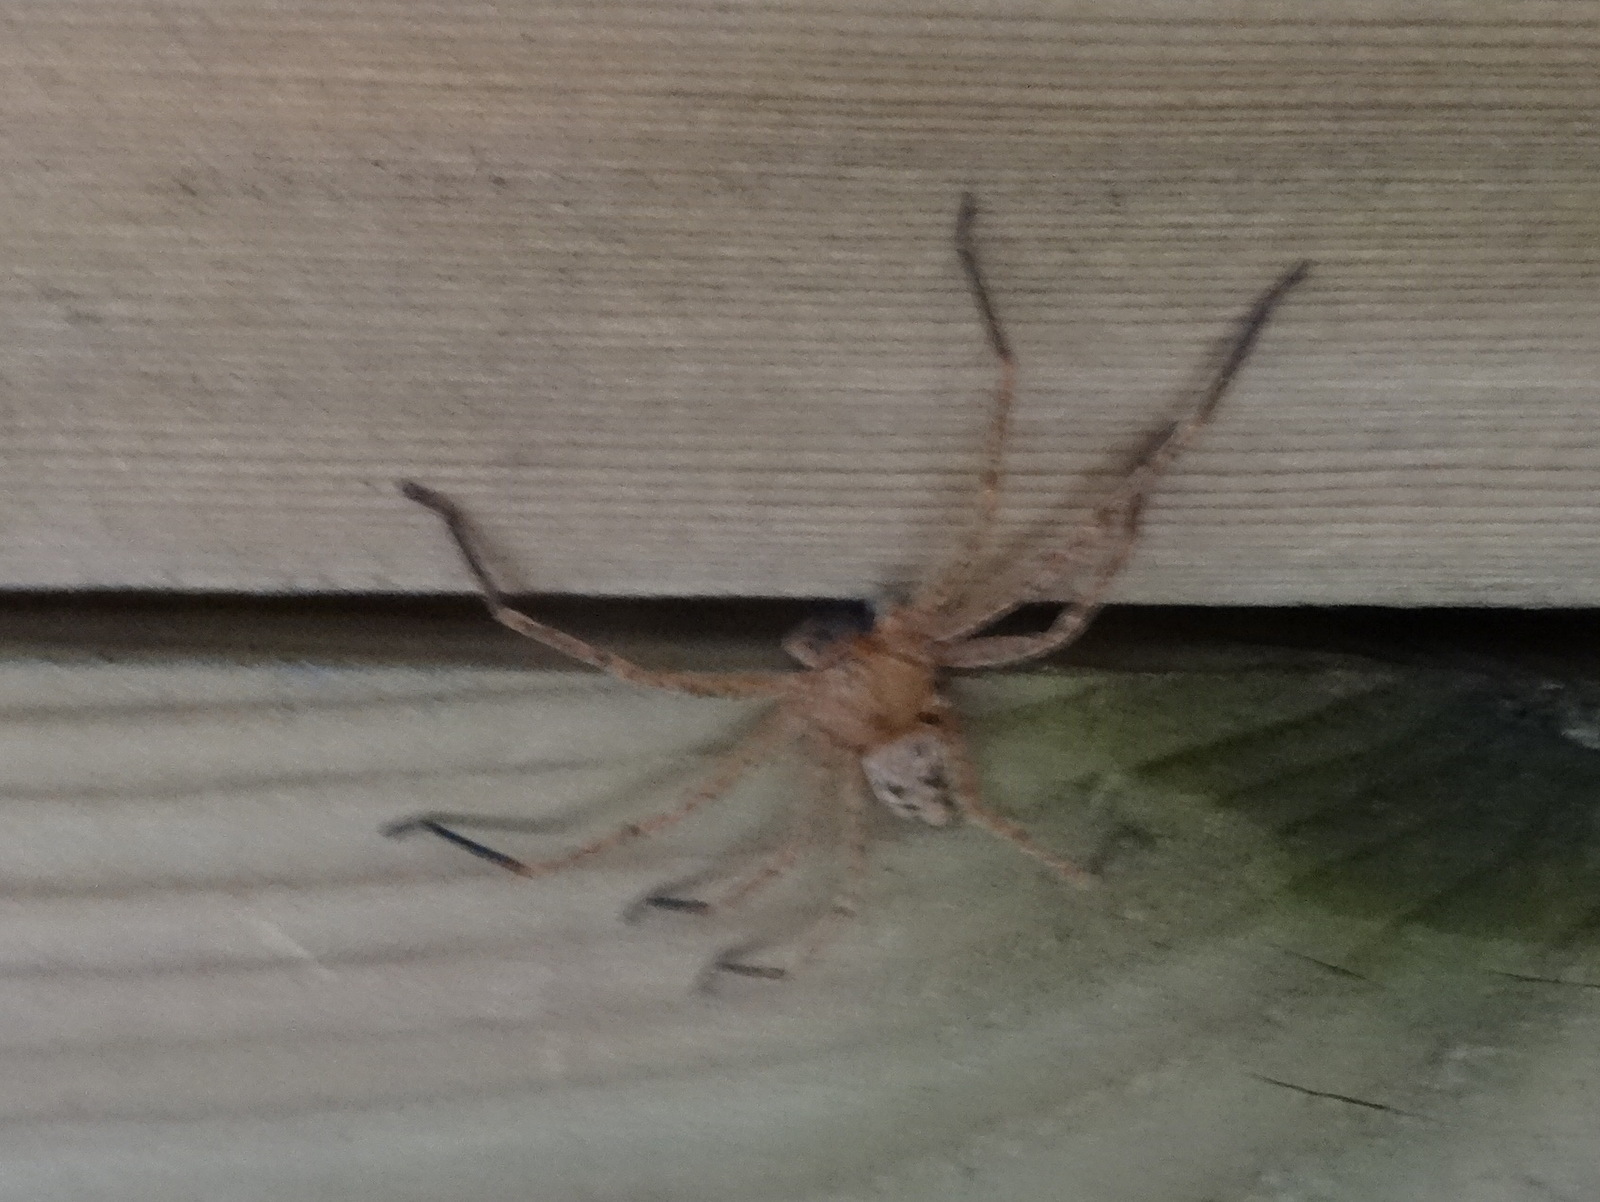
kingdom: Animalia
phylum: Arthropoda
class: Arachnida
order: Araneae
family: Sparassidae
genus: Olios
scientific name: Olios argelasius
